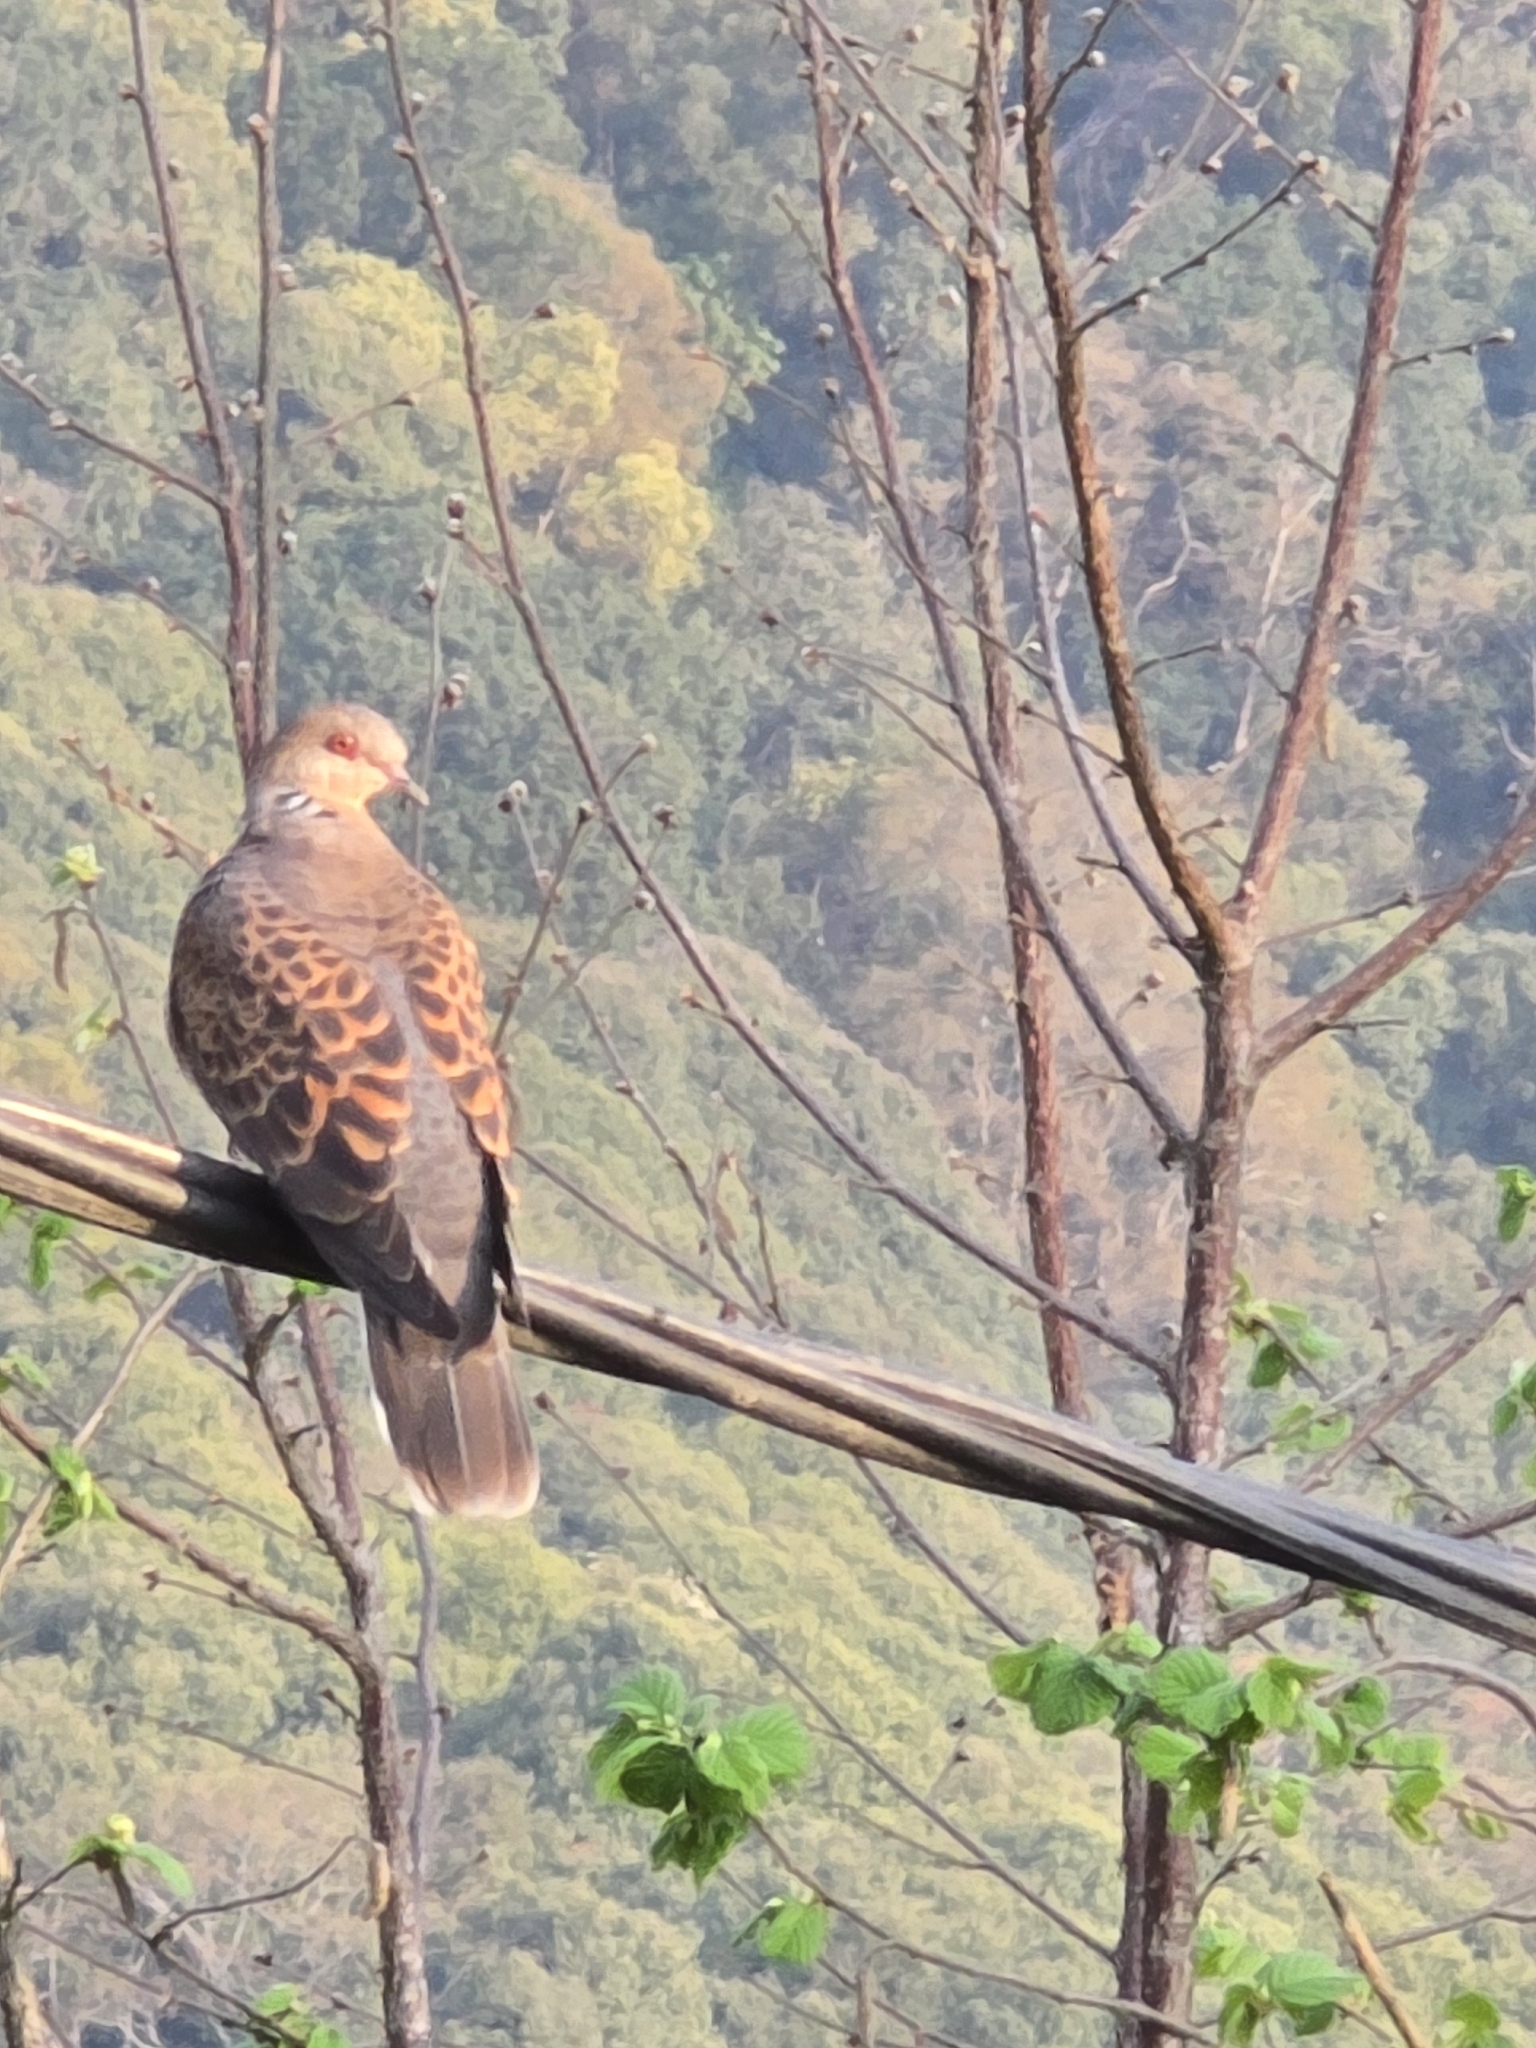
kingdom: Animalia
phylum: Chordata
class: Aves
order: Columbiformes
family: Columbidae
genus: Streptopelia
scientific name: Streptopelia orientalis
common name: Oriental turtle dove
